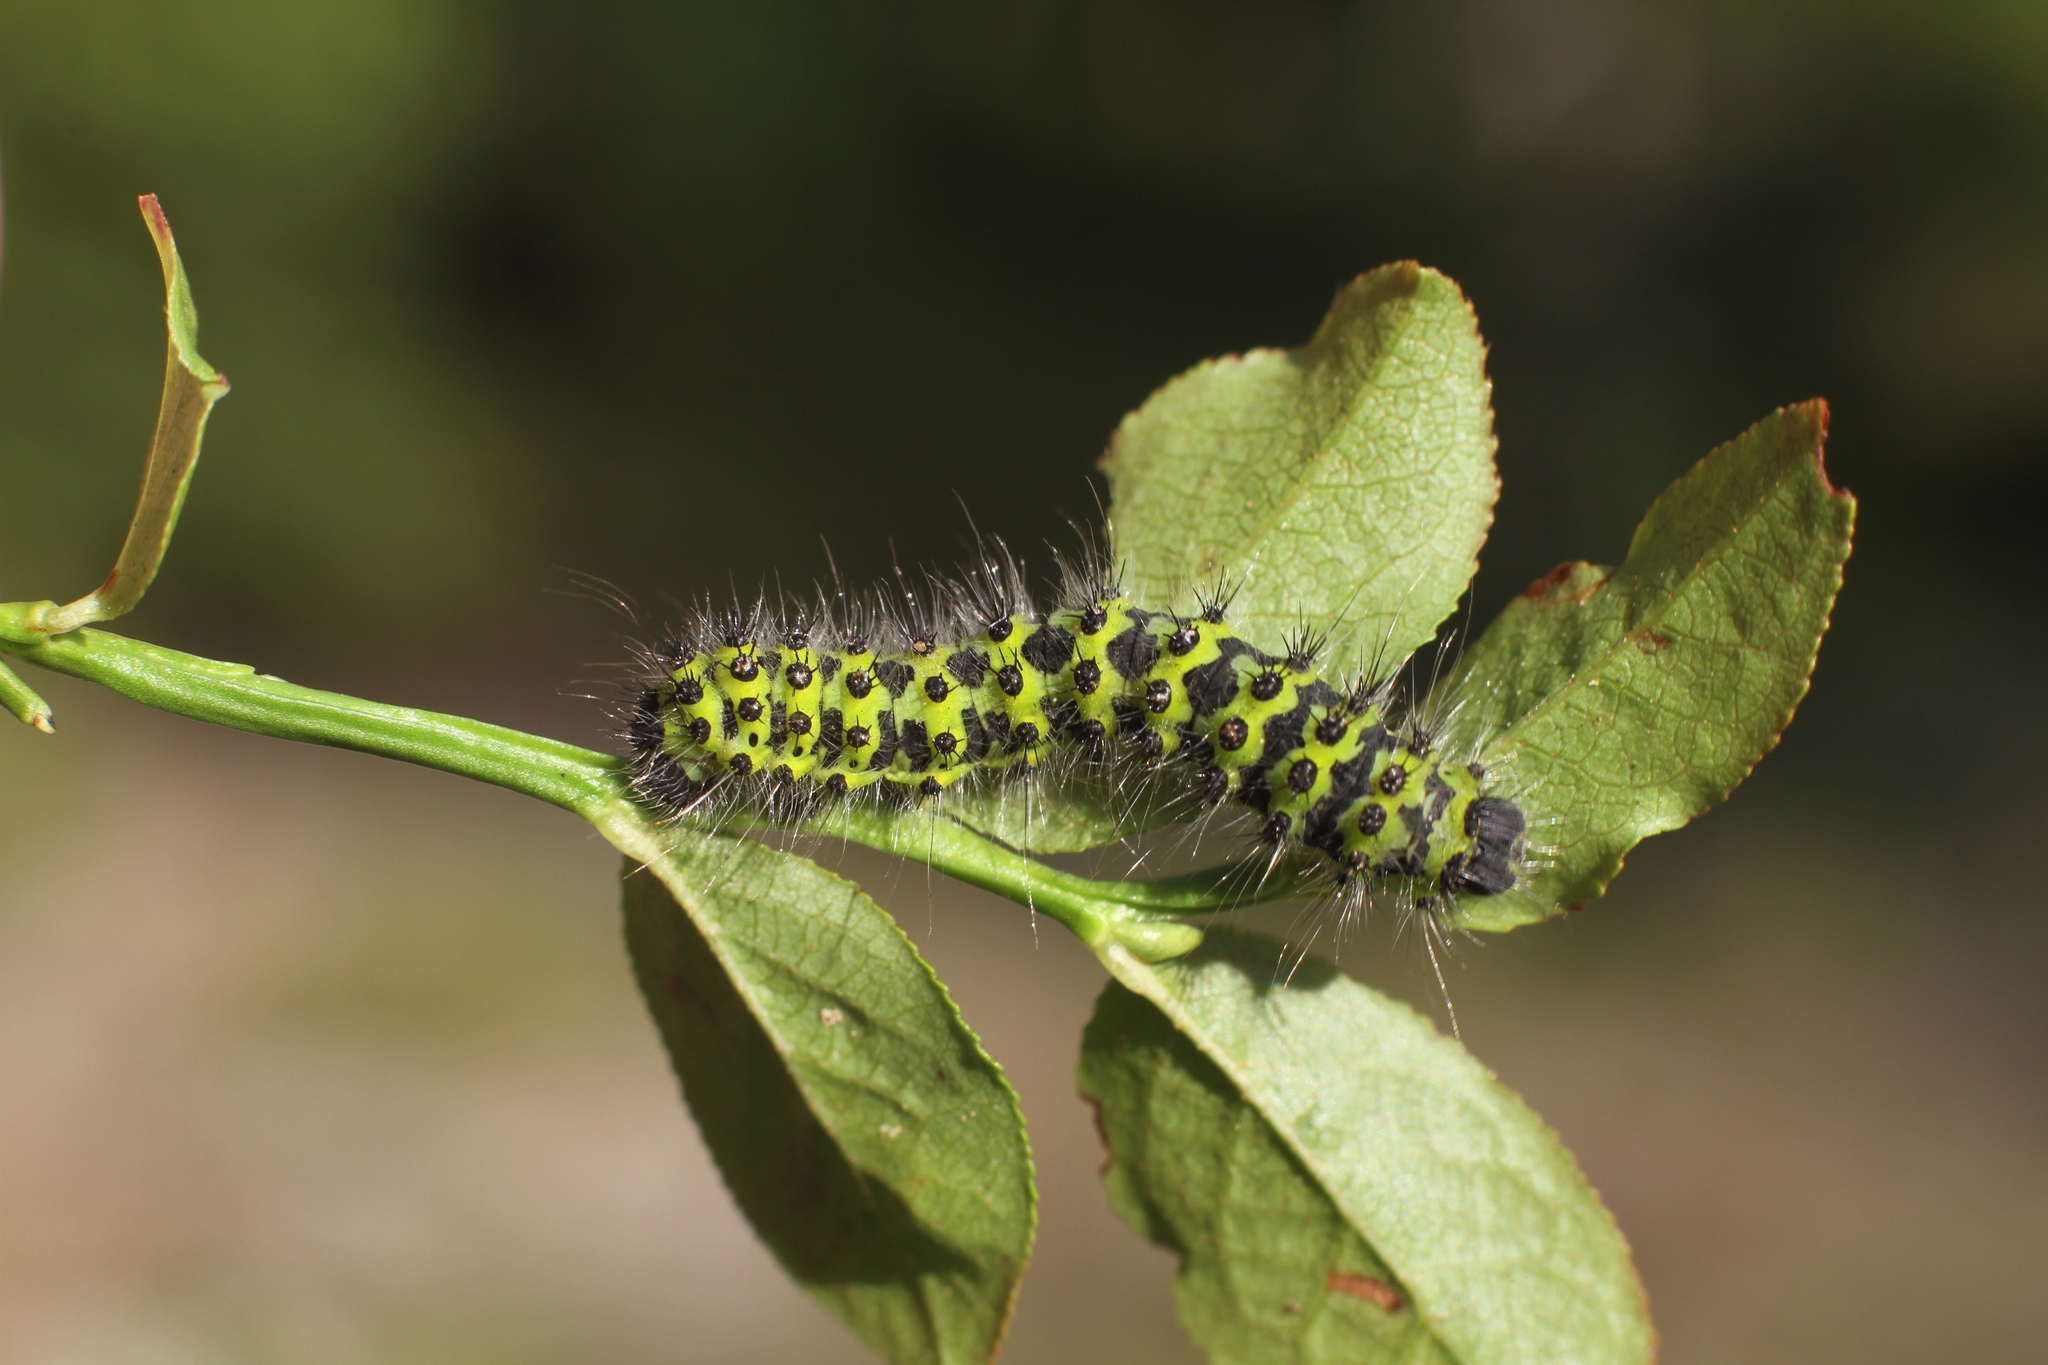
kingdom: Animalia
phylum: Arthropoda
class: Insecta
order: Lepidoptera
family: Saturniidae
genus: Saturnia
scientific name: Saturnia pavonia
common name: Emperor moth
